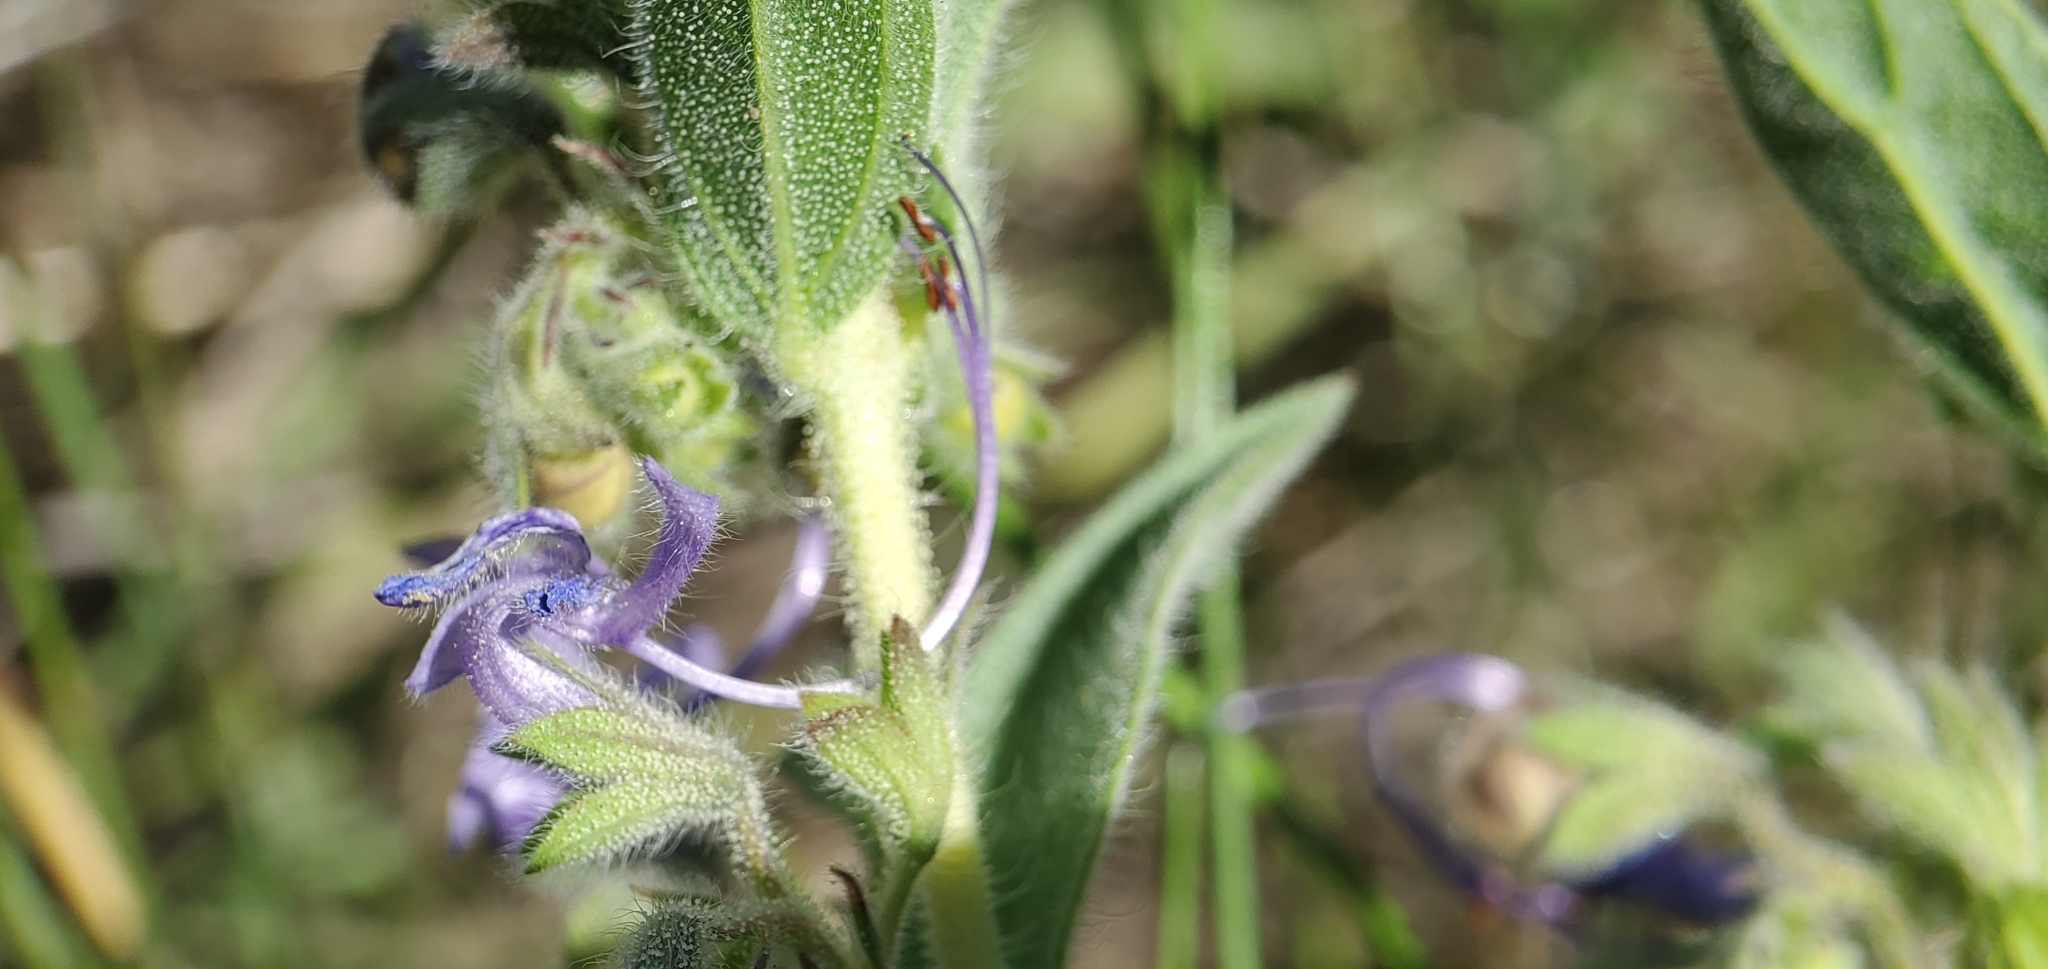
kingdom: Plantae
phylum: Tracheophyta
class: Magnoliopsida
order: Lamiales
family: Lamiaceae
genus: Trichostema
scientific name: Trichostema lanceolatum
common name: Vinegar-weed
